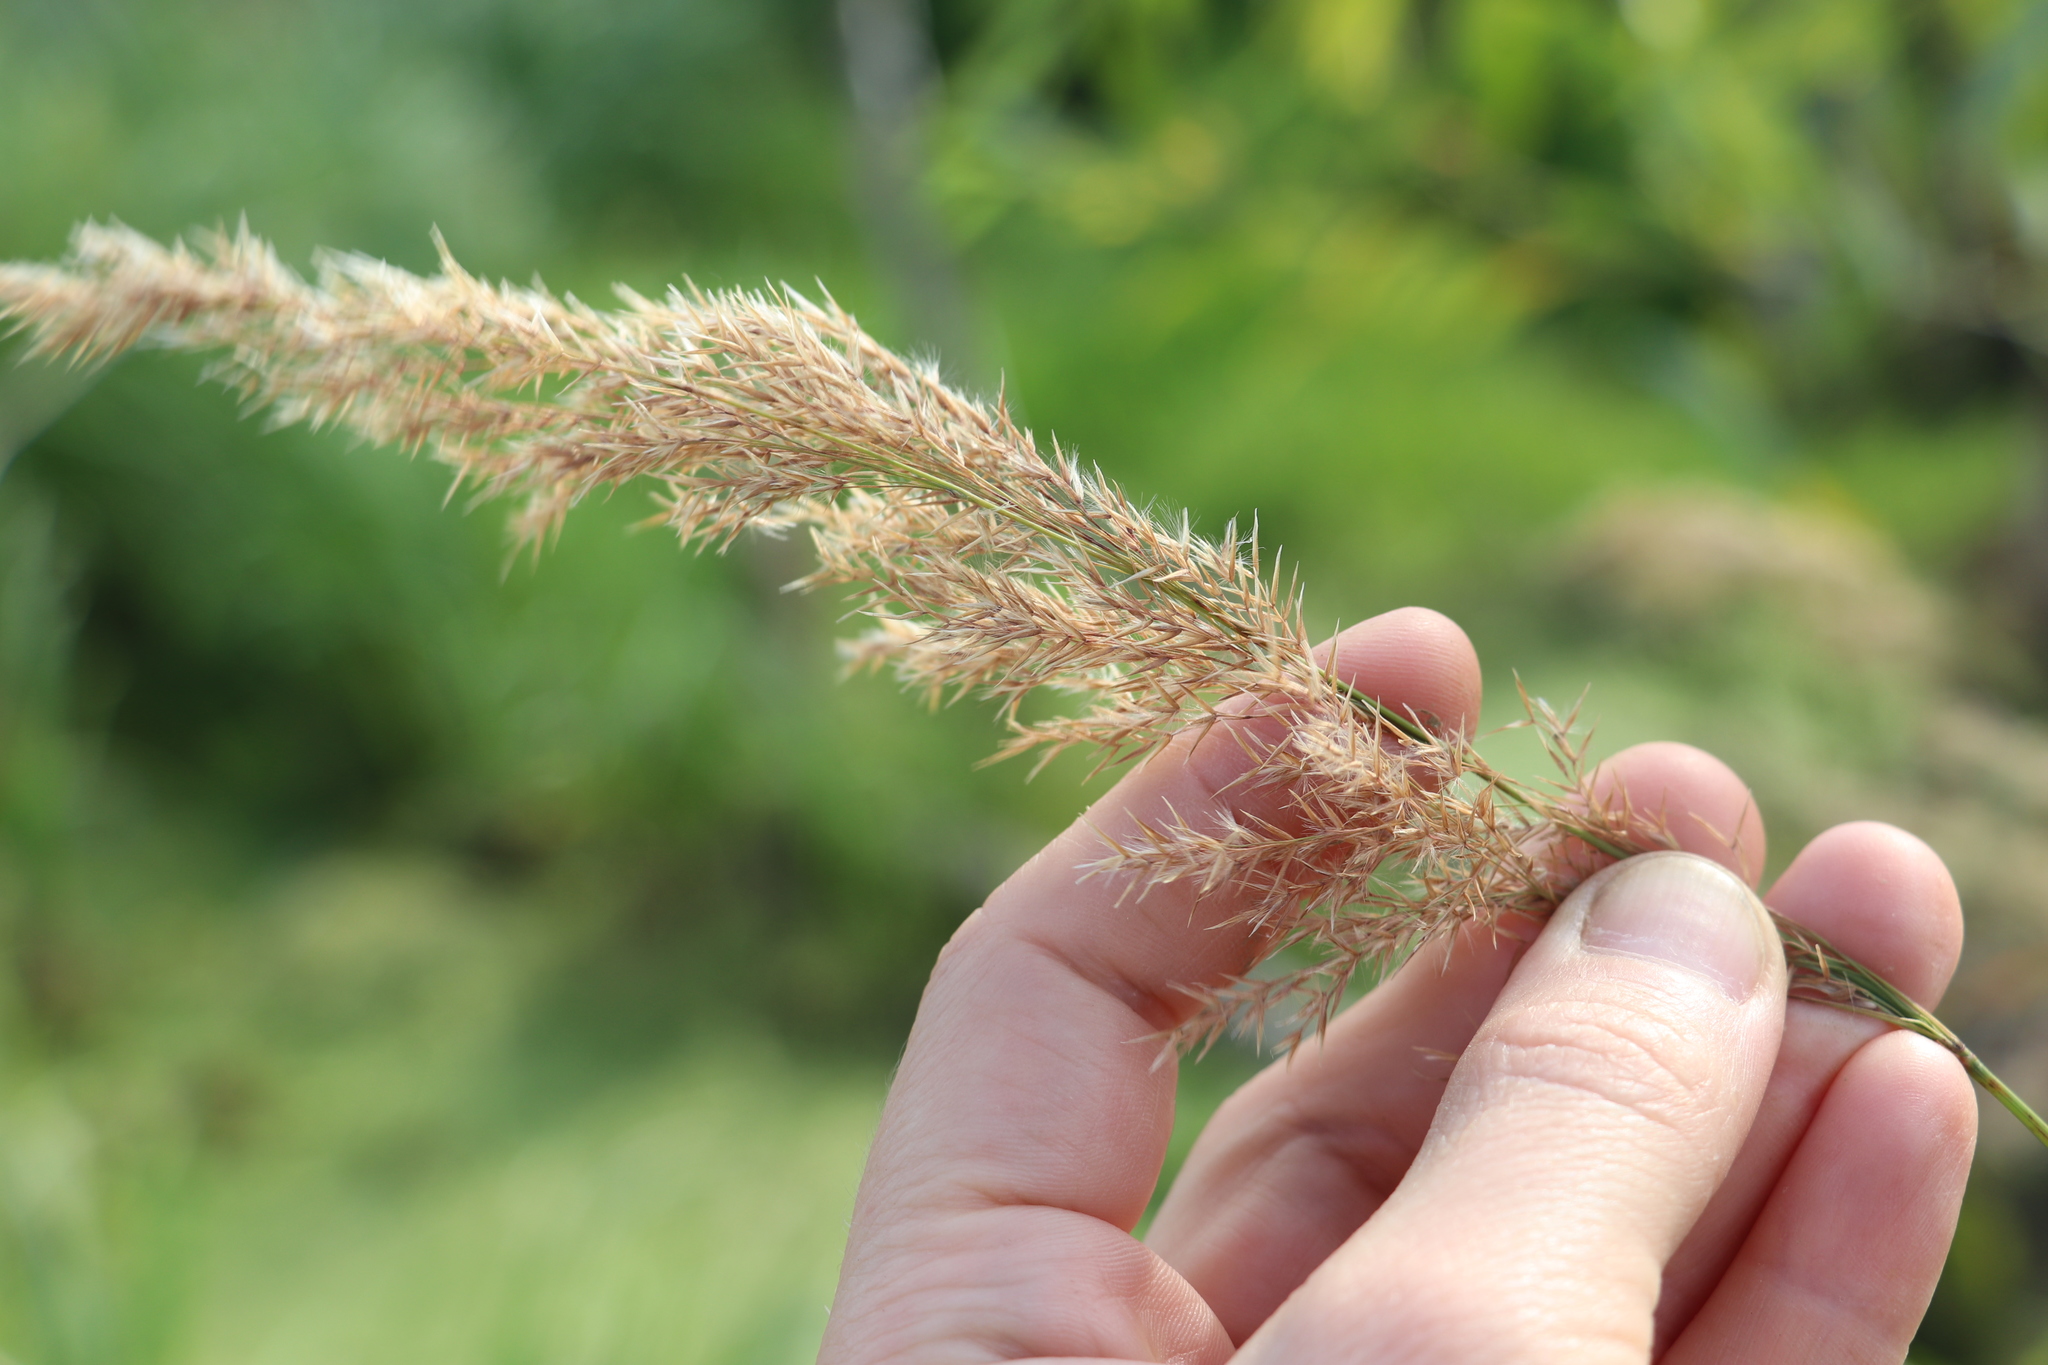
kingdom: Plantae
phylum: Tracheophyta
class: Liliopsida
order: Poales
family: Poaceae
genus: Calamagrostis
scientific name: Calamagrostis purpurea
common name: Scandinavian small-reed
